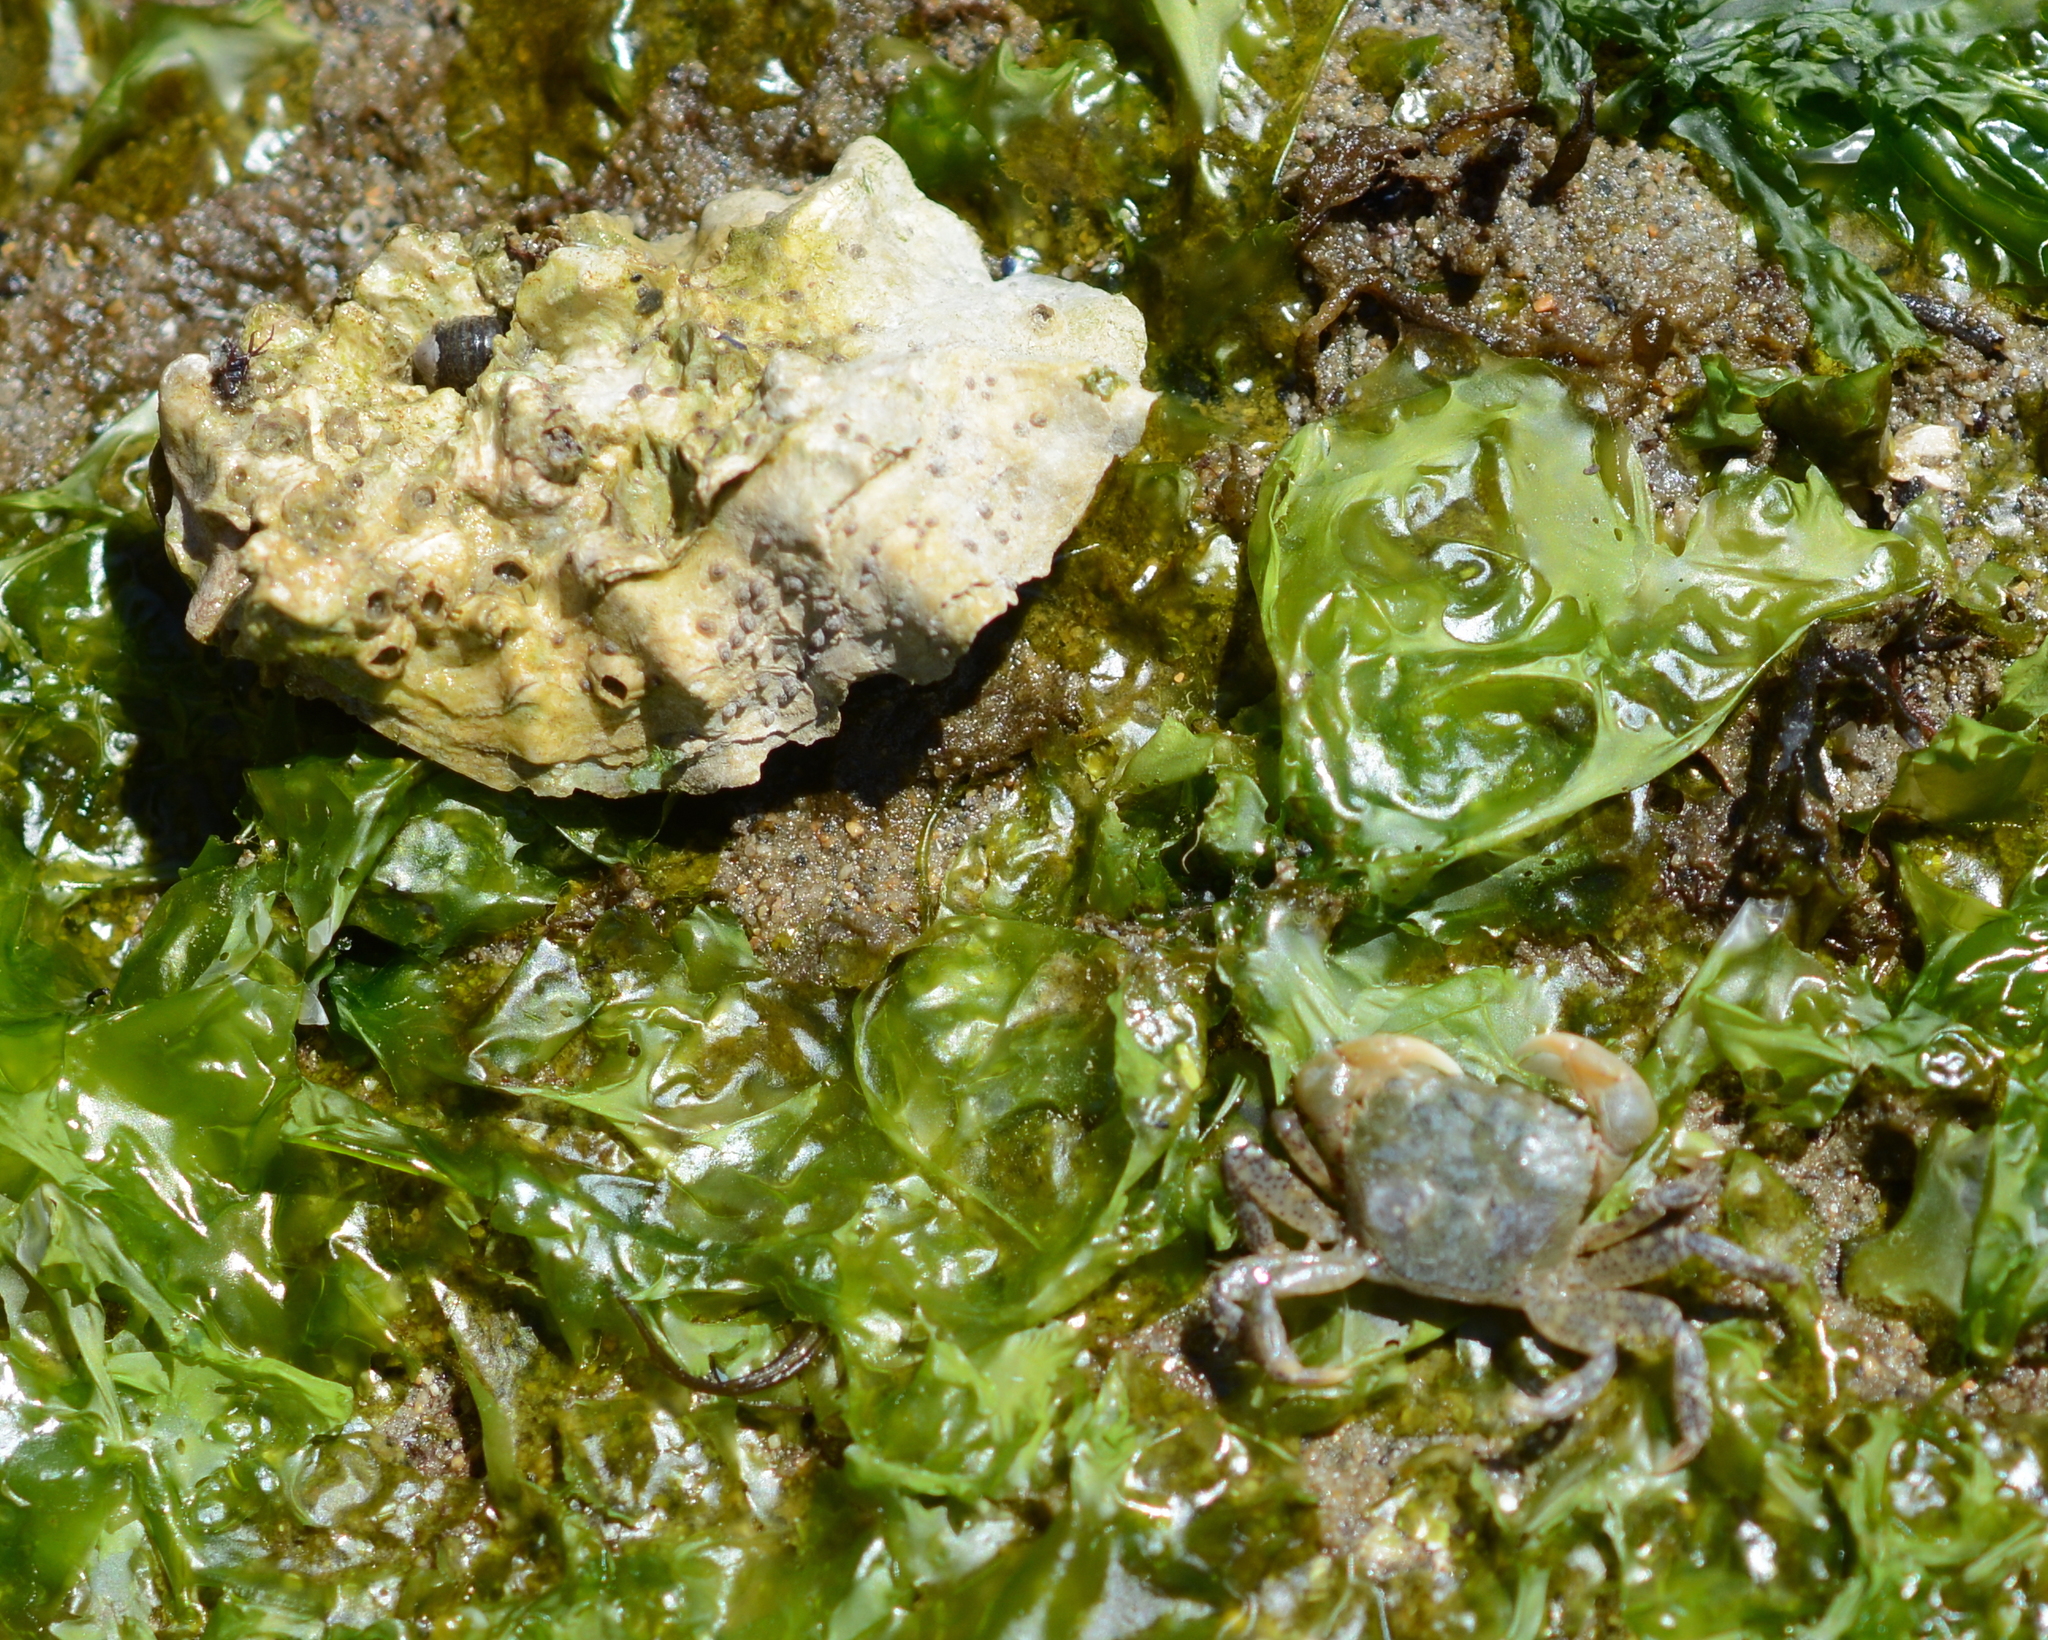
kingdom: Animalia
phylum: Arthropoda
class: Malacostraca
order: Decapoda
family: Varunidae
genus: Hemigrapsus
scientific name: Hemigrapsus oregonensis
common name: Yellow shore crab
